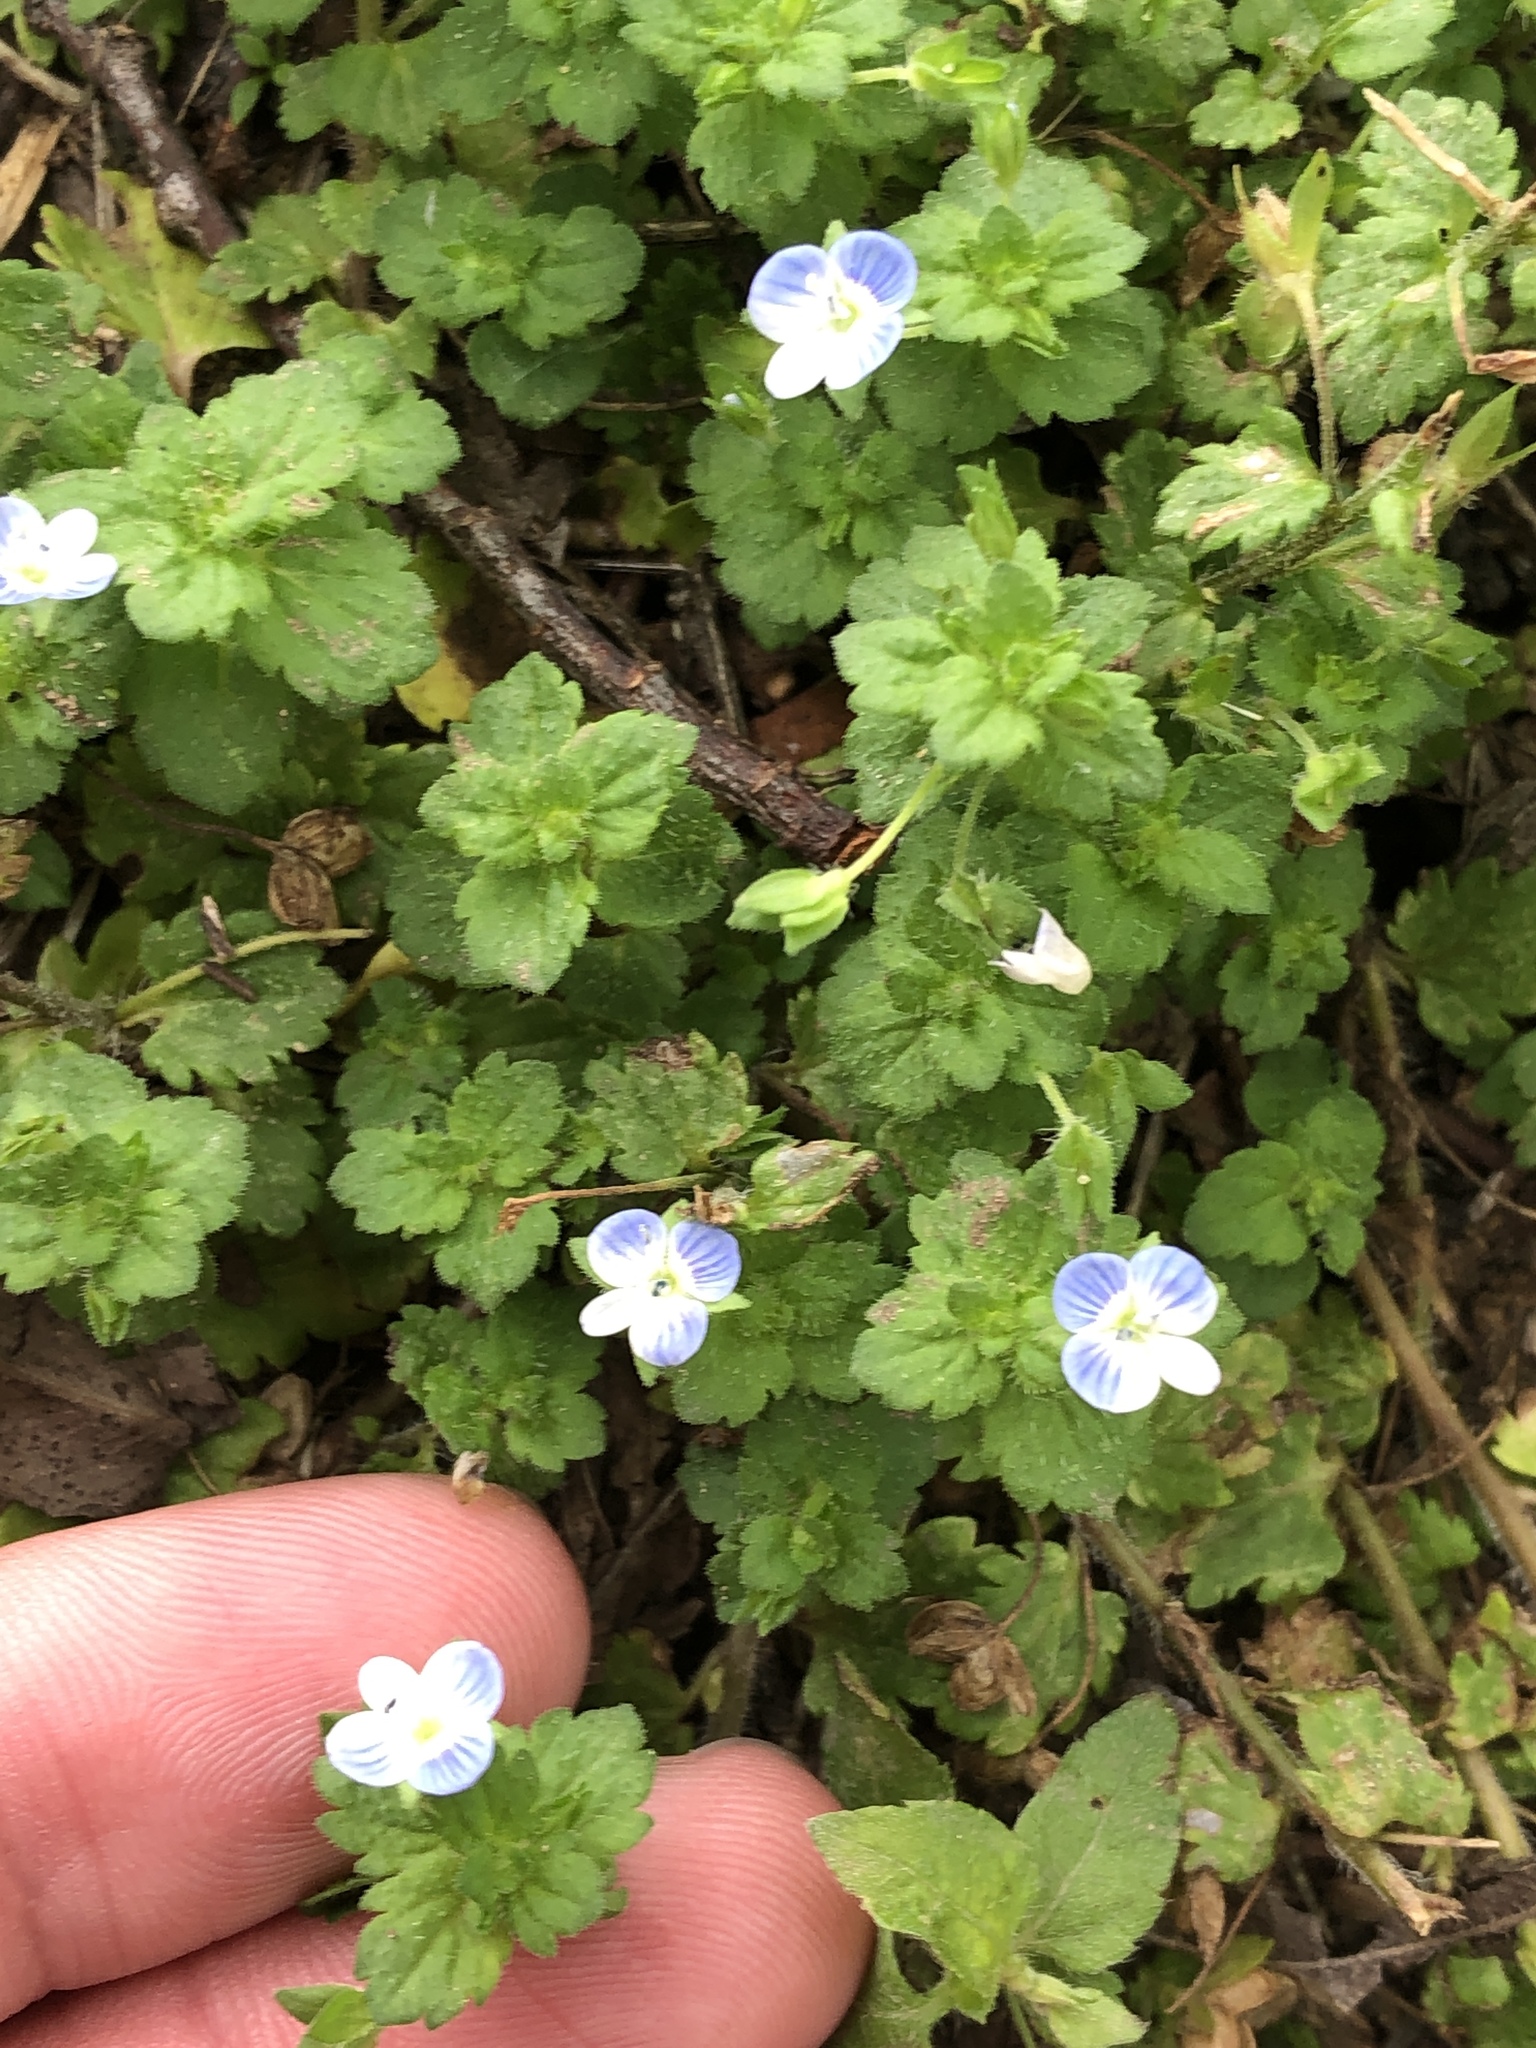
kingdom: Plantae
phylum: Tracheophyta
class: Magnoliopsida
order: Lamiales
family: Plantaginaceae
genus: Veronica
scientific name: Veronica persica
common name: Common field-speedwell
